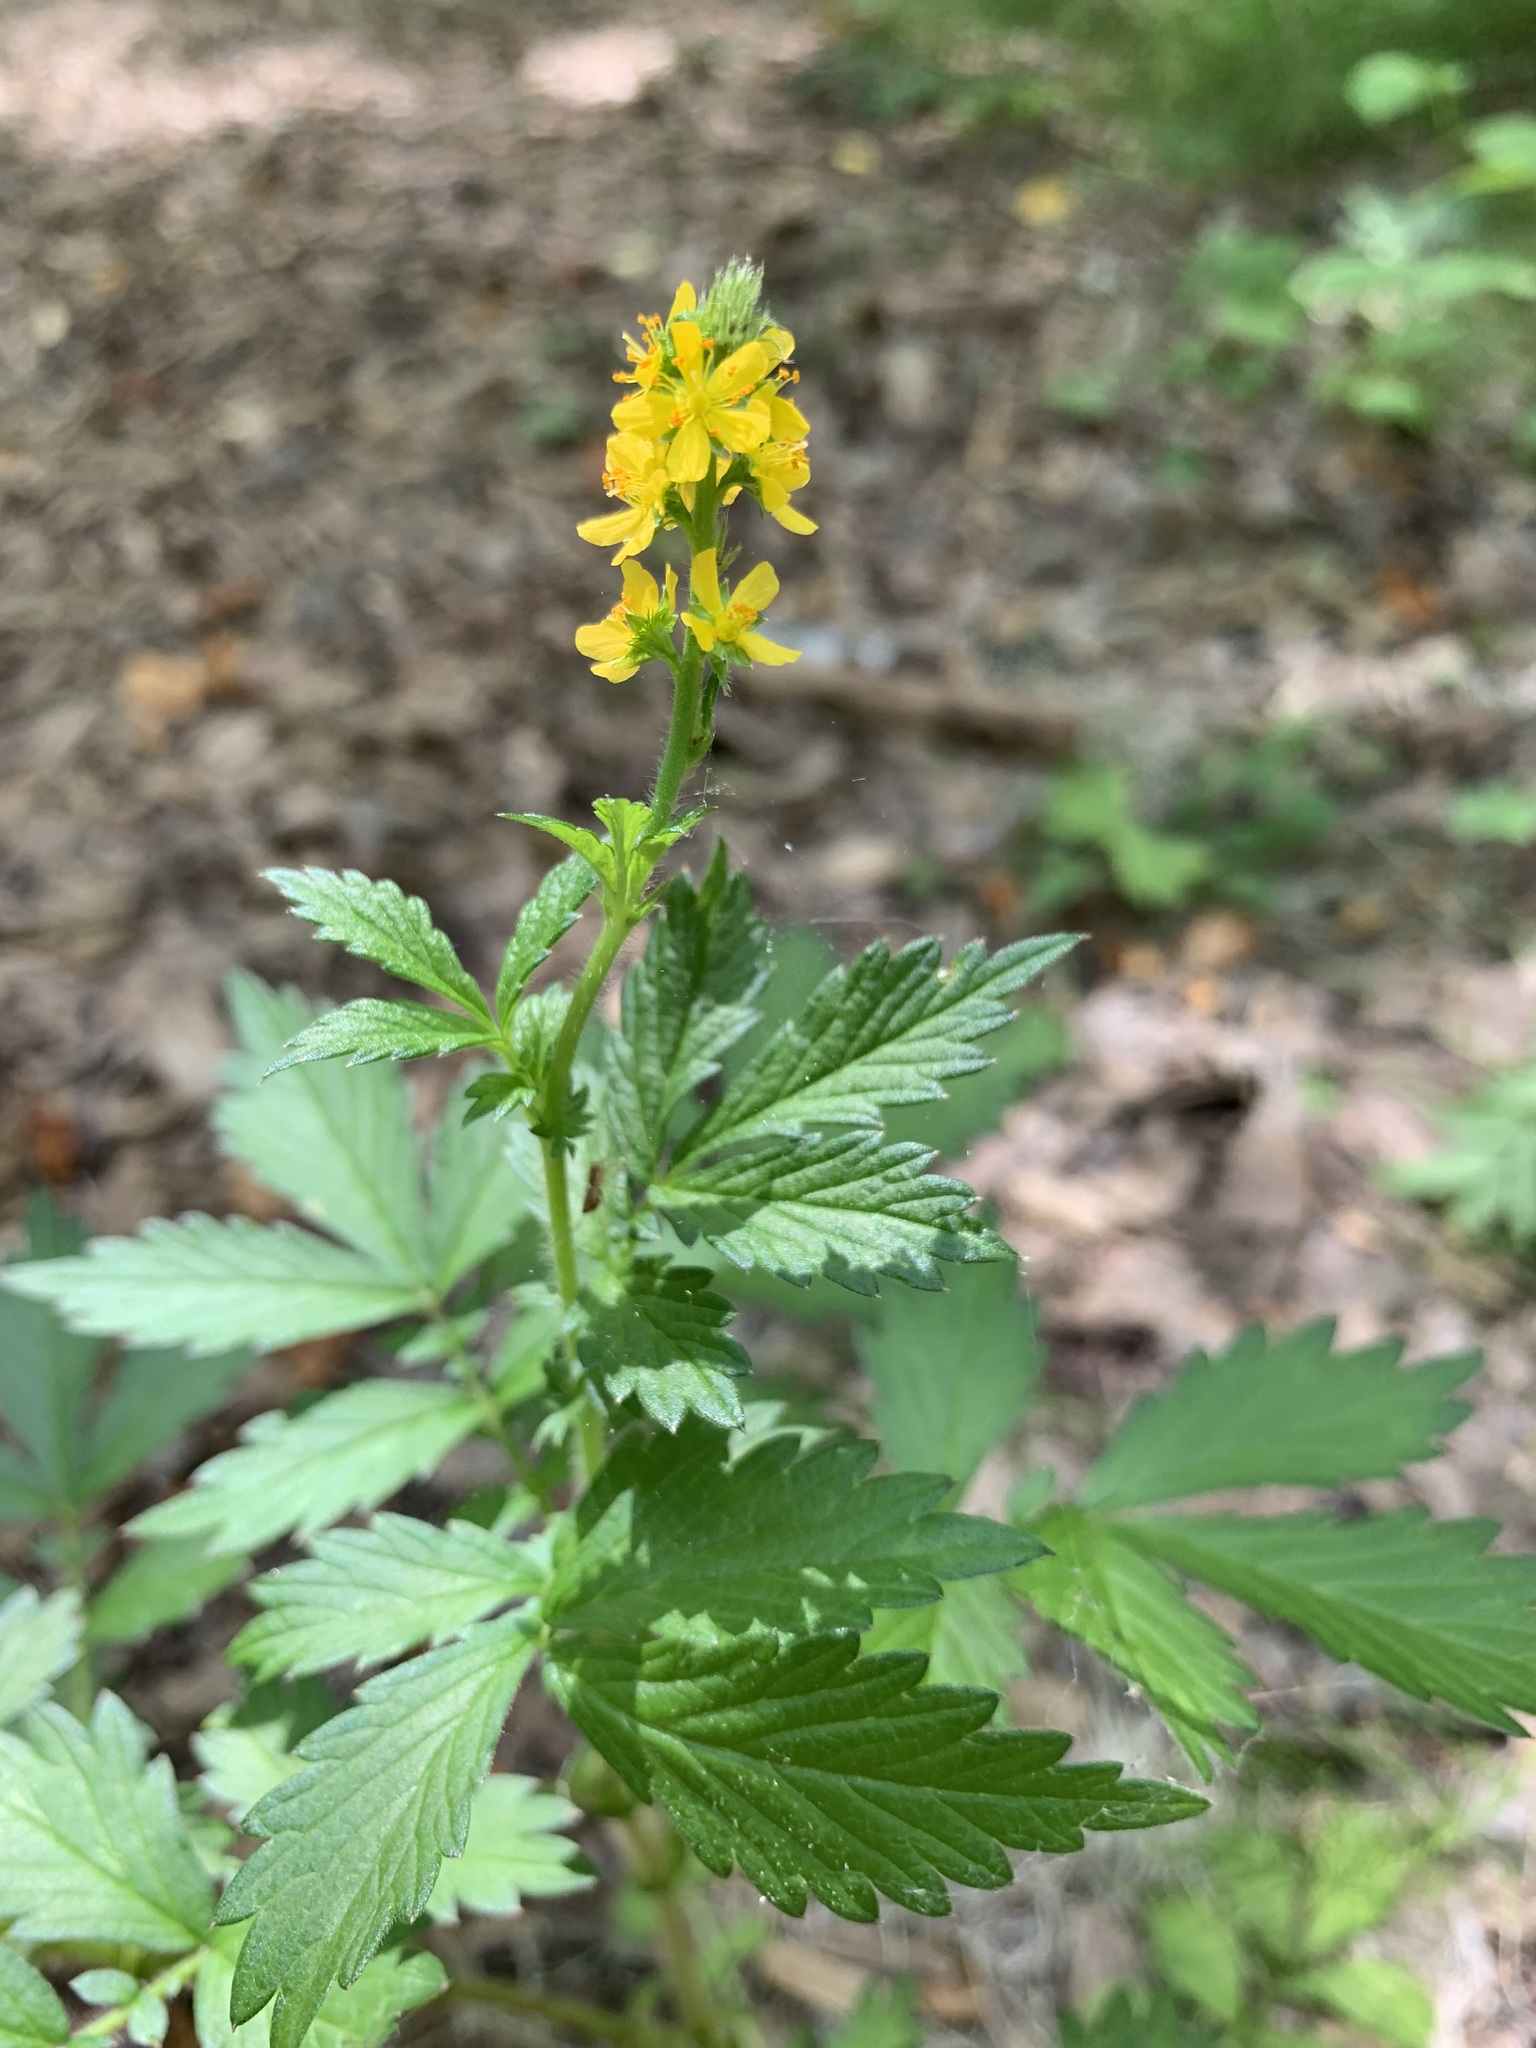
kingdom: Plantae
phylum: Tracheophyta
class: Magnoliopsida
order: Rosales
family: Rosaceae
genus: Agrimonia
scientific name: Agrimonia pilosa
